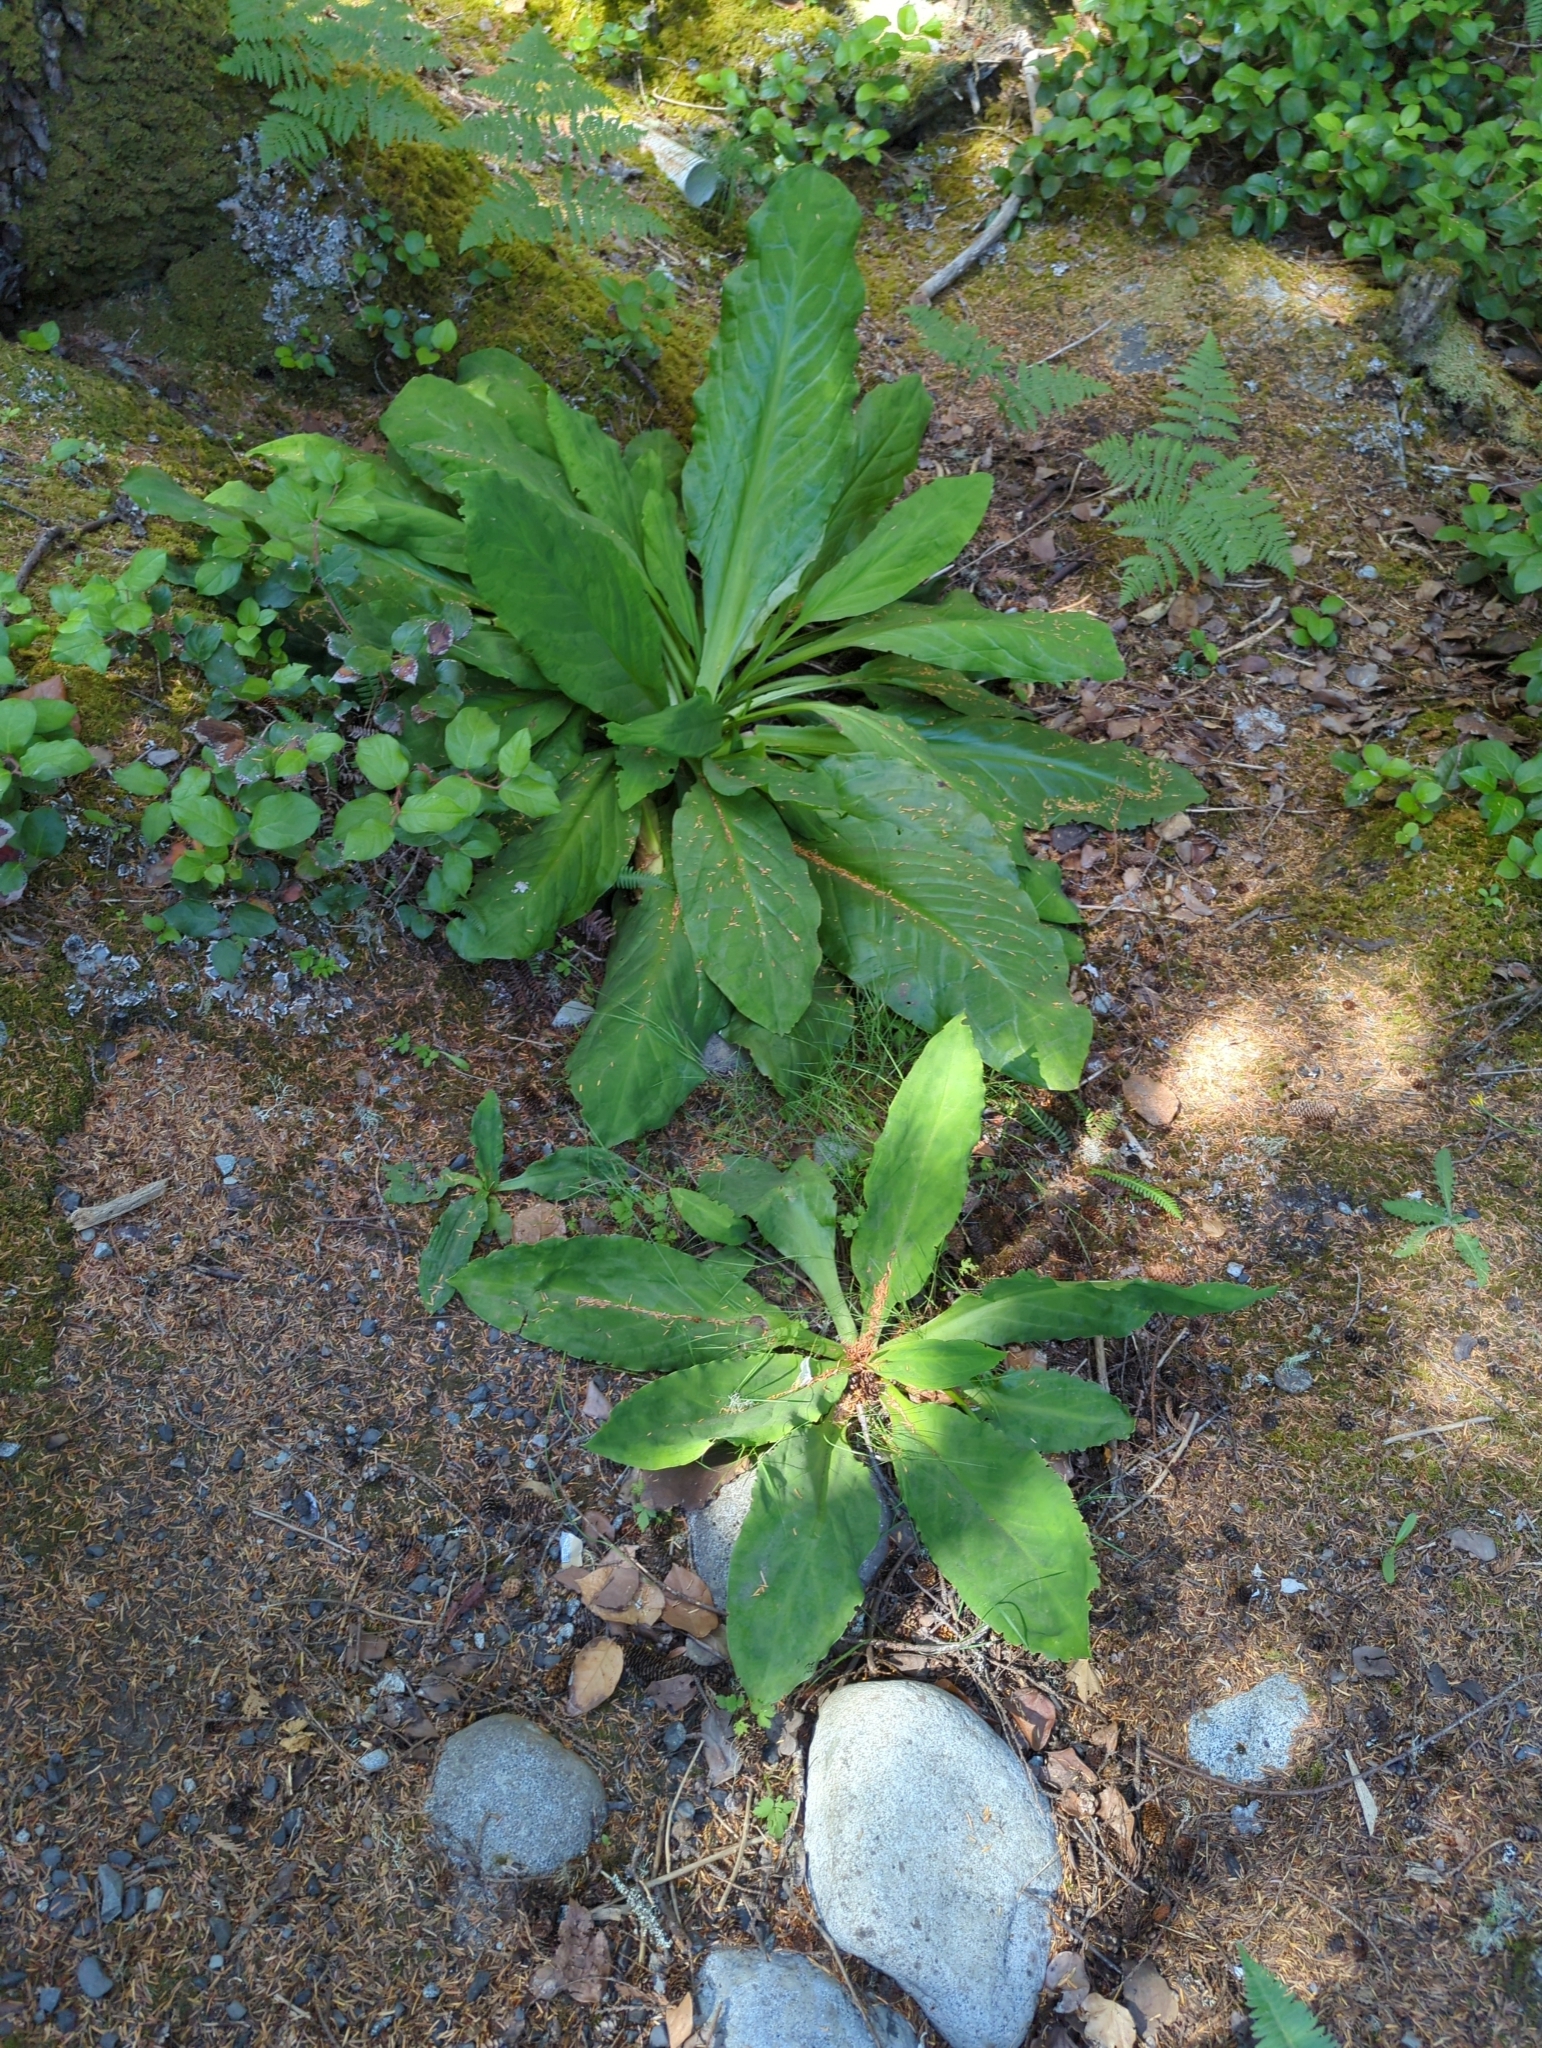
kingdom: Plantae
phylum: Tracheophyta
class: Liliopsida
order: Alismatales
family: Araceae
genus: Lysichiton
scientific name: Lysichiton americanus
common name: American skunk cabbage
